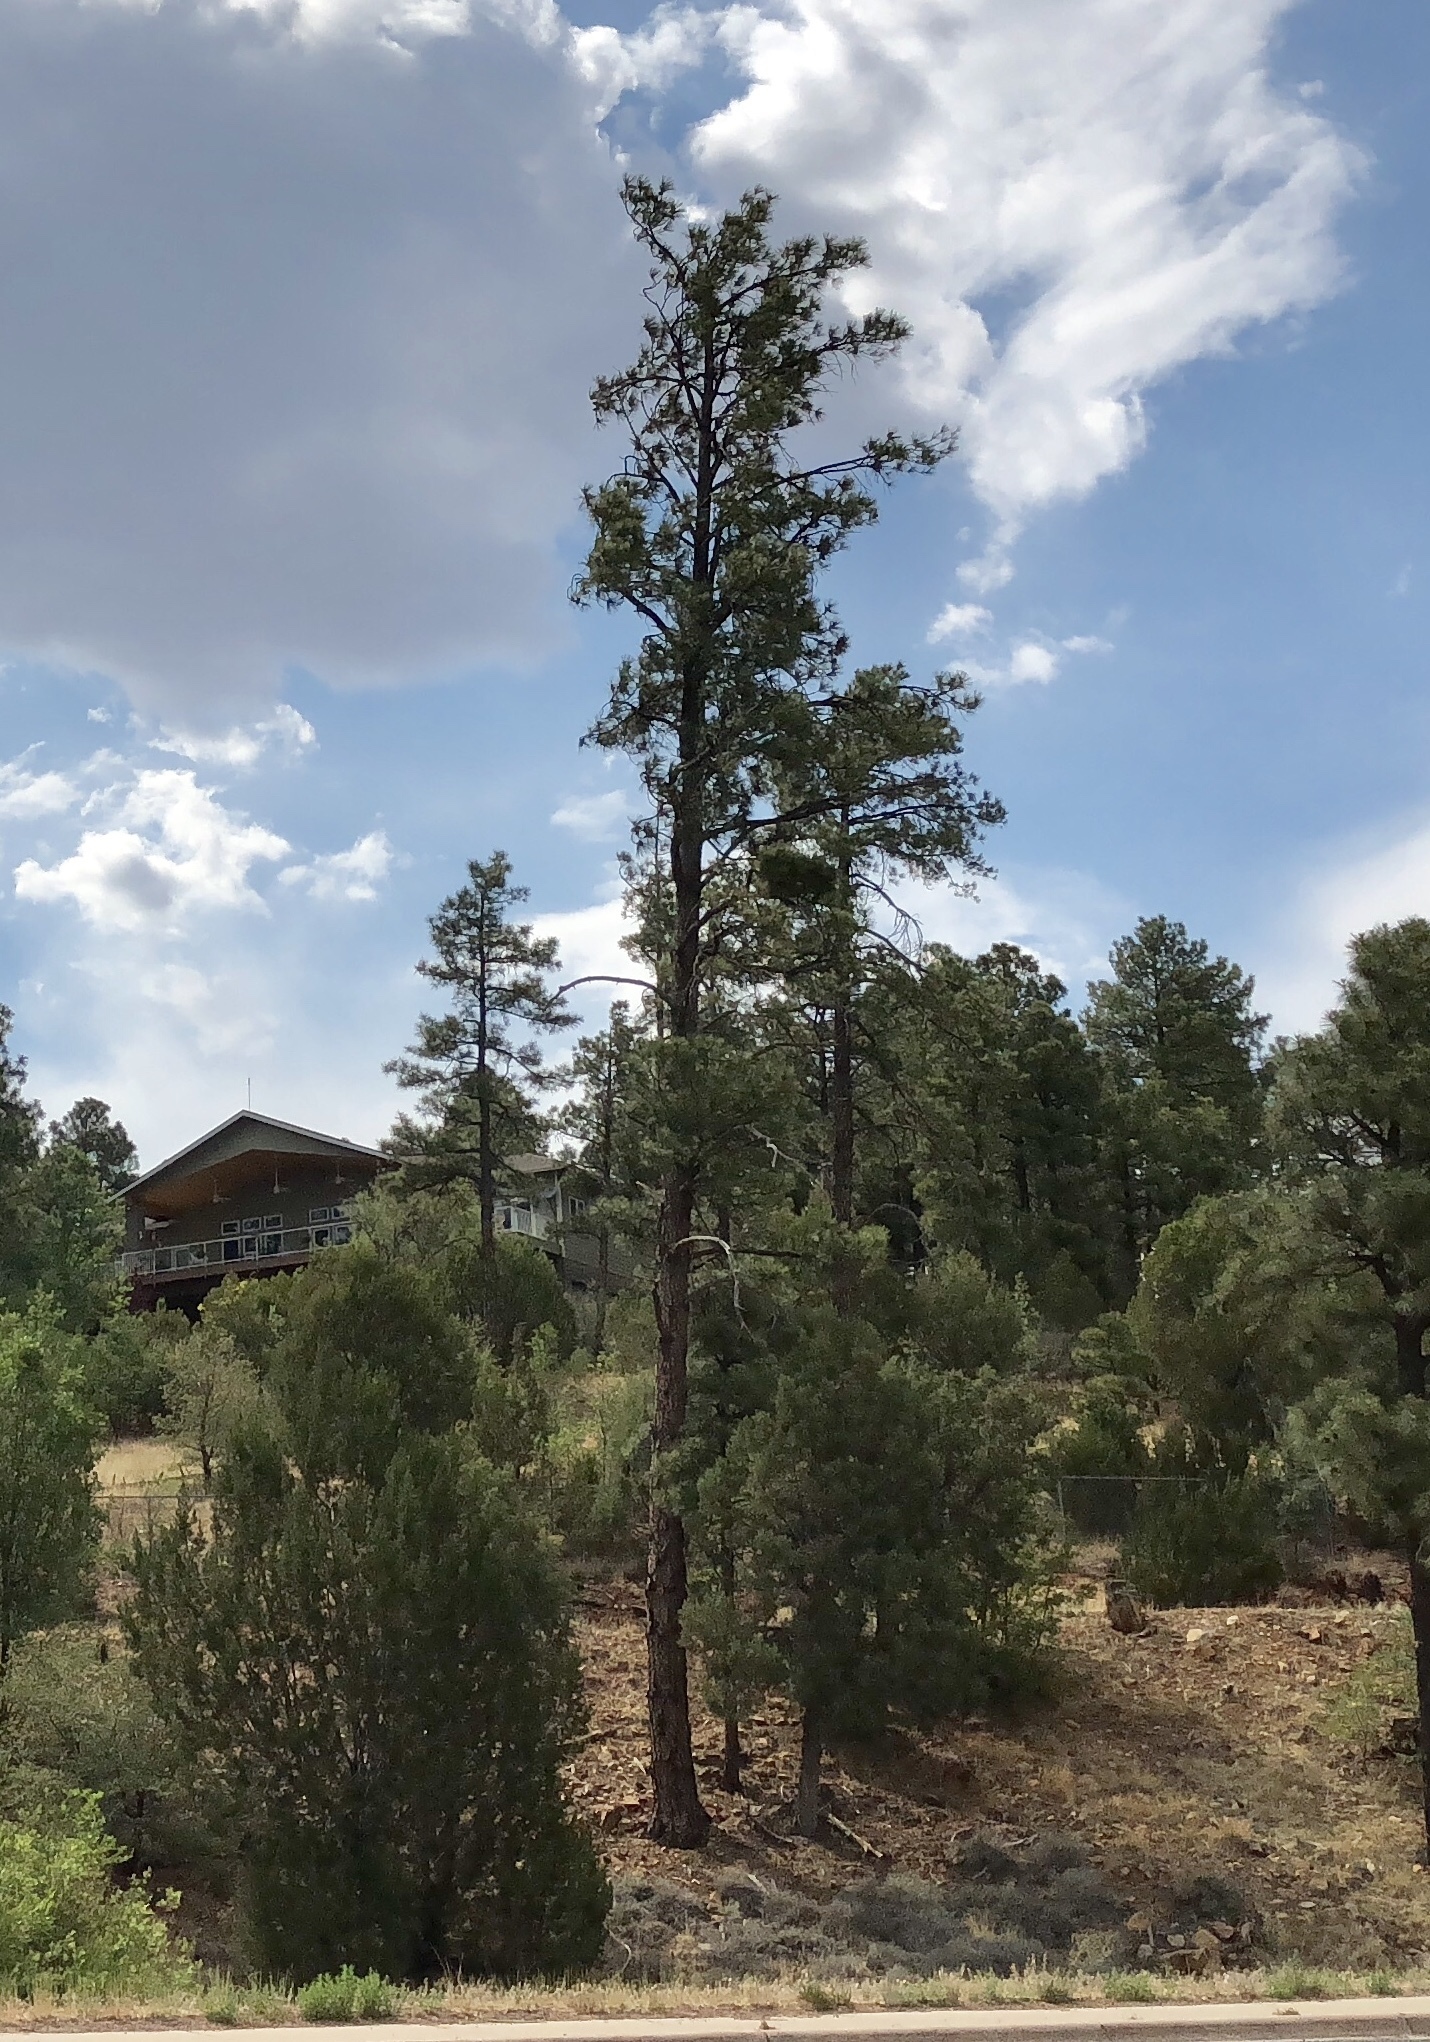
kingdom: Plantae
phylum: Tracheophyta
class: Pinopsida
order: Pinales
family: Pinaceae
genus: Pinus
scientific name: Pinus ponderosa
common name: Western yellow-pine
